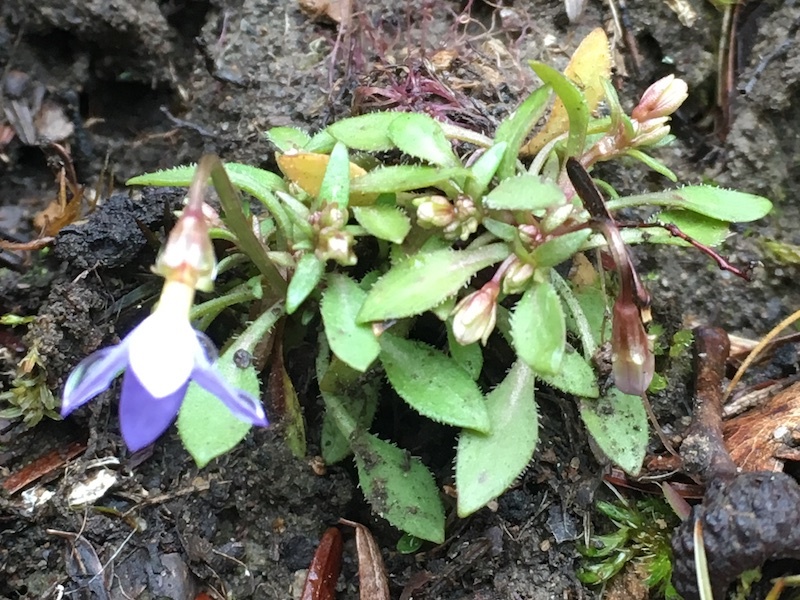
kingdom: Plantae
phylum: Tracheophyta
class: Magnoliopsida
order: Gentianales
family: Rubiaceae
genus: Houstonia
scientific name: Houstonia caerulea
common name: Bluets
